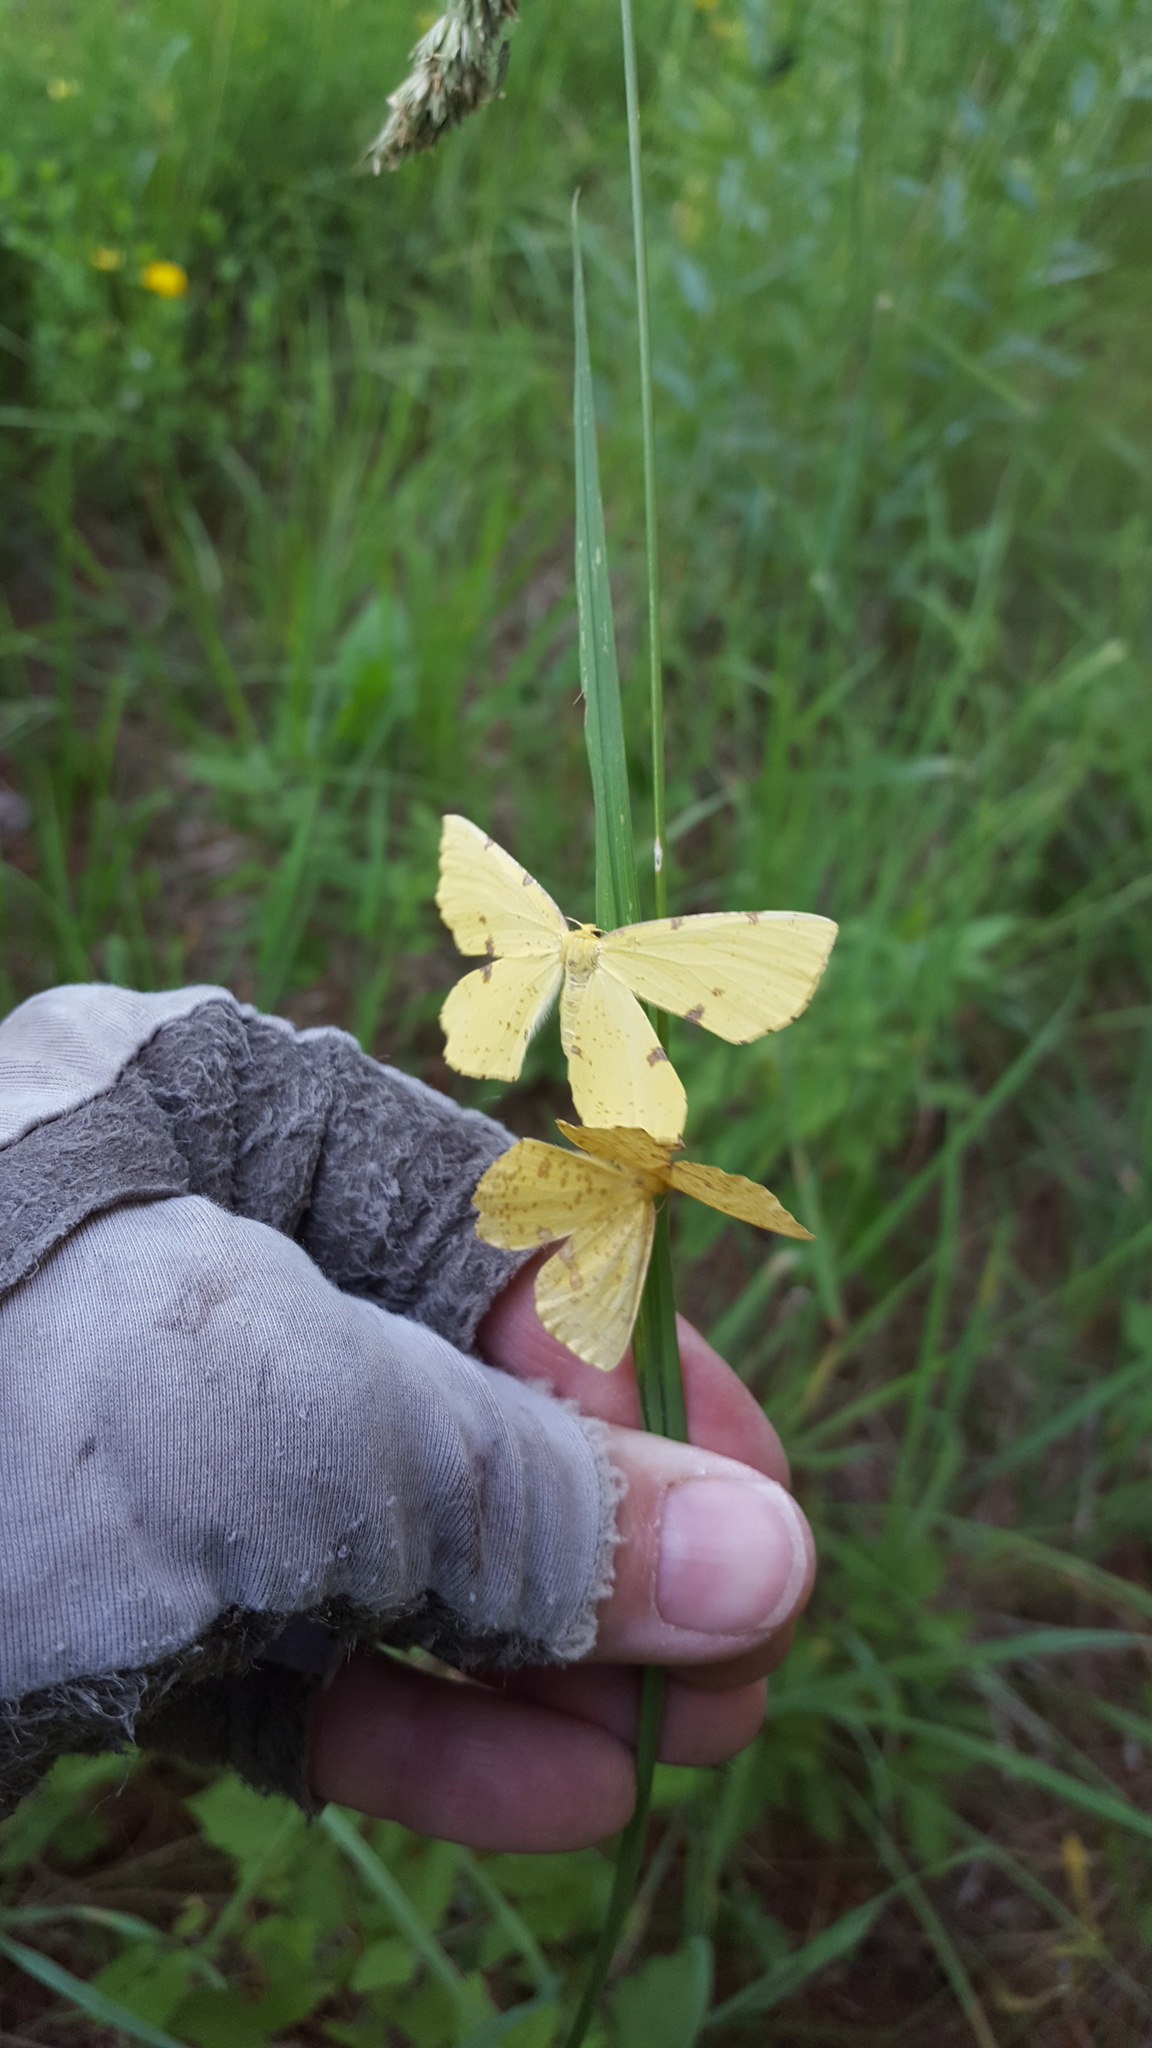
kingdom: Animalia
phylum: Arthropoda
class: Insecta
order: Lepidoptera
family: Geometridae
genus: Xanthotype
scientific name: Xanthotype
